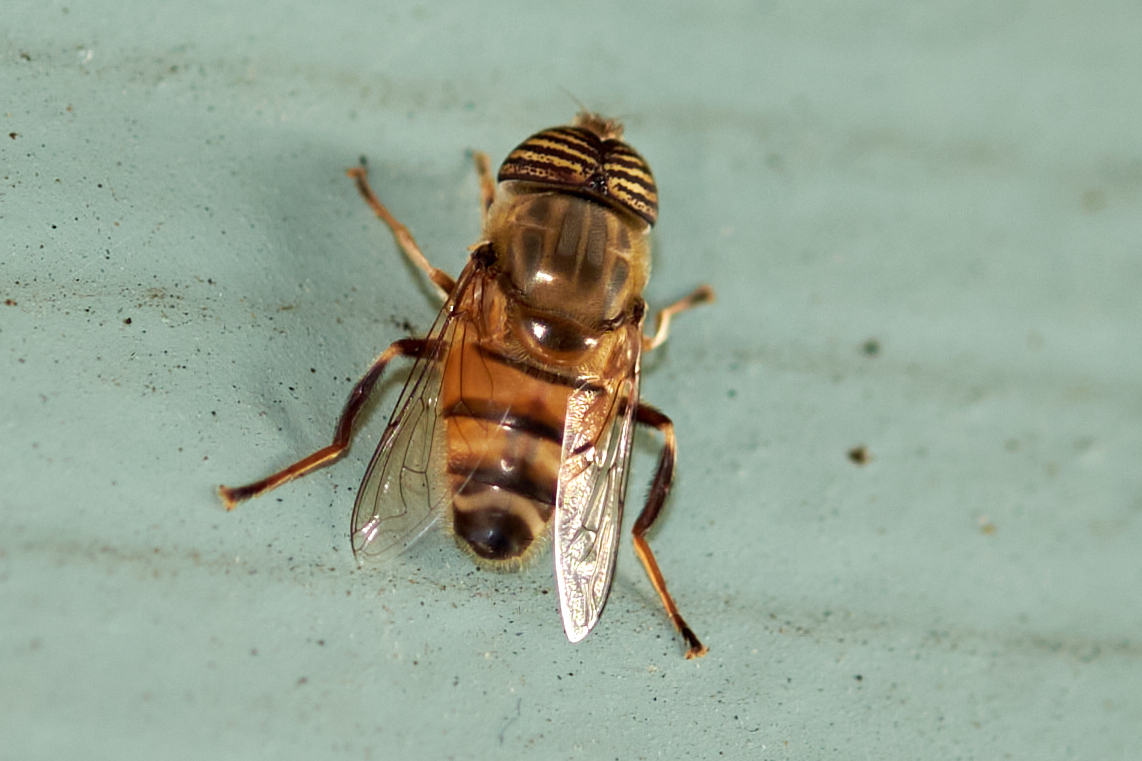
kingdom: Animalia
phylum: Arthropoda
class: Insecta
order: Diptera
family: Syrphidae
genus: Eristalinus
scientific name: Eristalinus taeniops
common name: Syrphid fly
